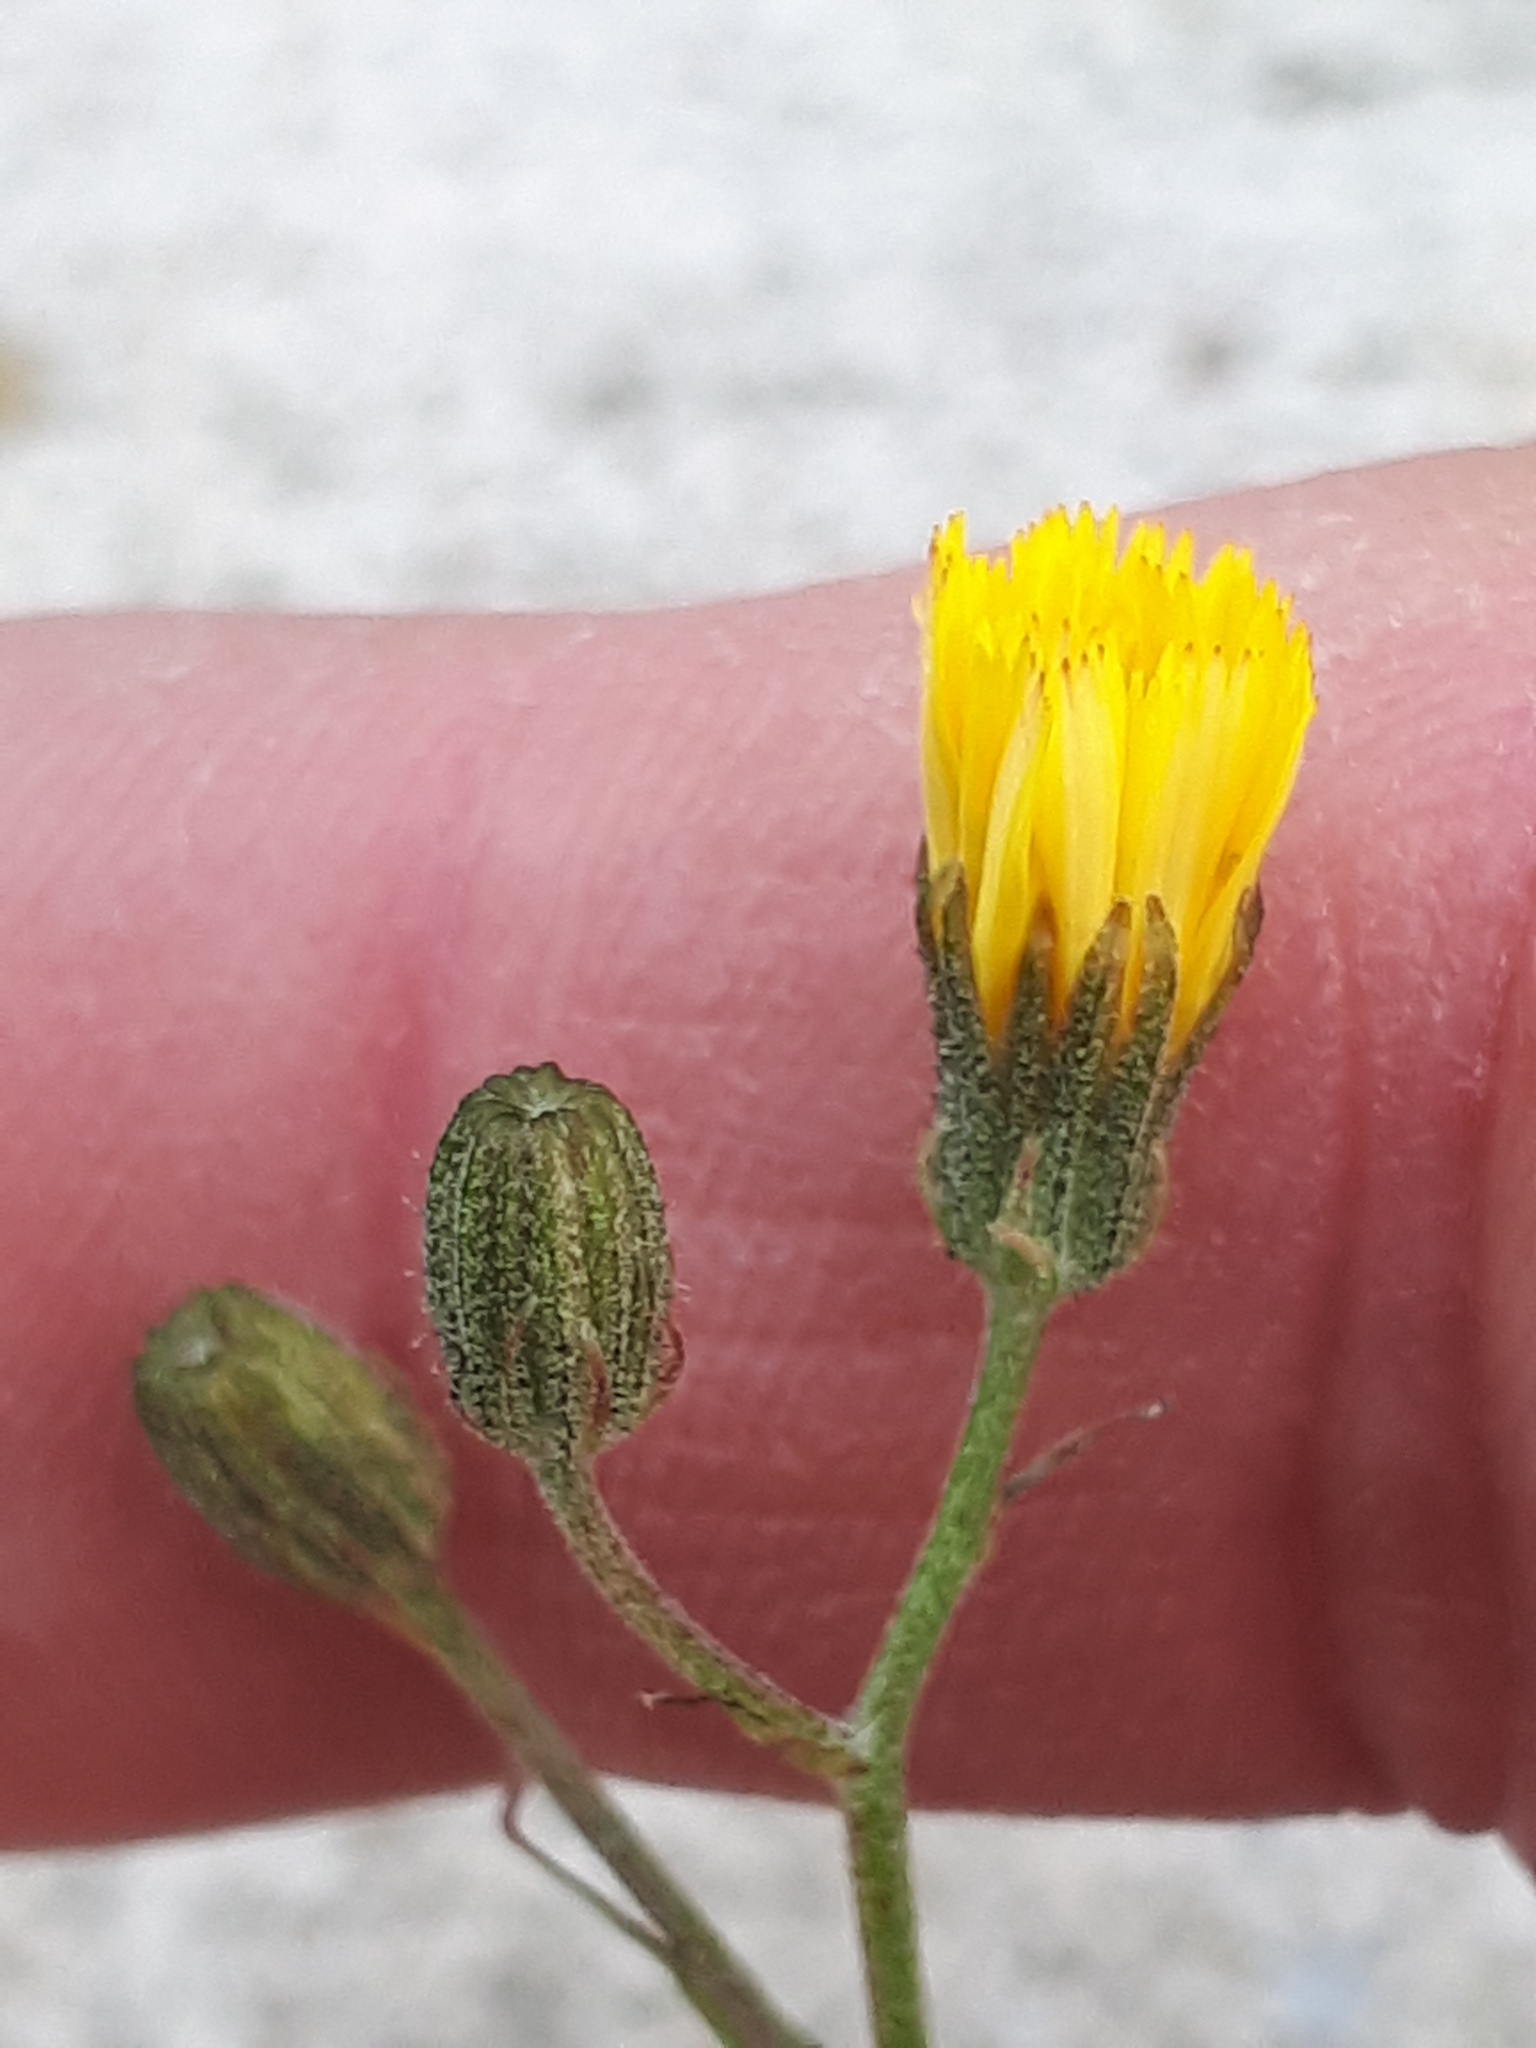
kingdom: Plantae
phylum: Tracheophyta
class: Magnoliopsida
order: Asterales
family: Asteraceae
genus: Crepis
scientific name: Crepis capillaris
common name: Smooth hawksbeard
